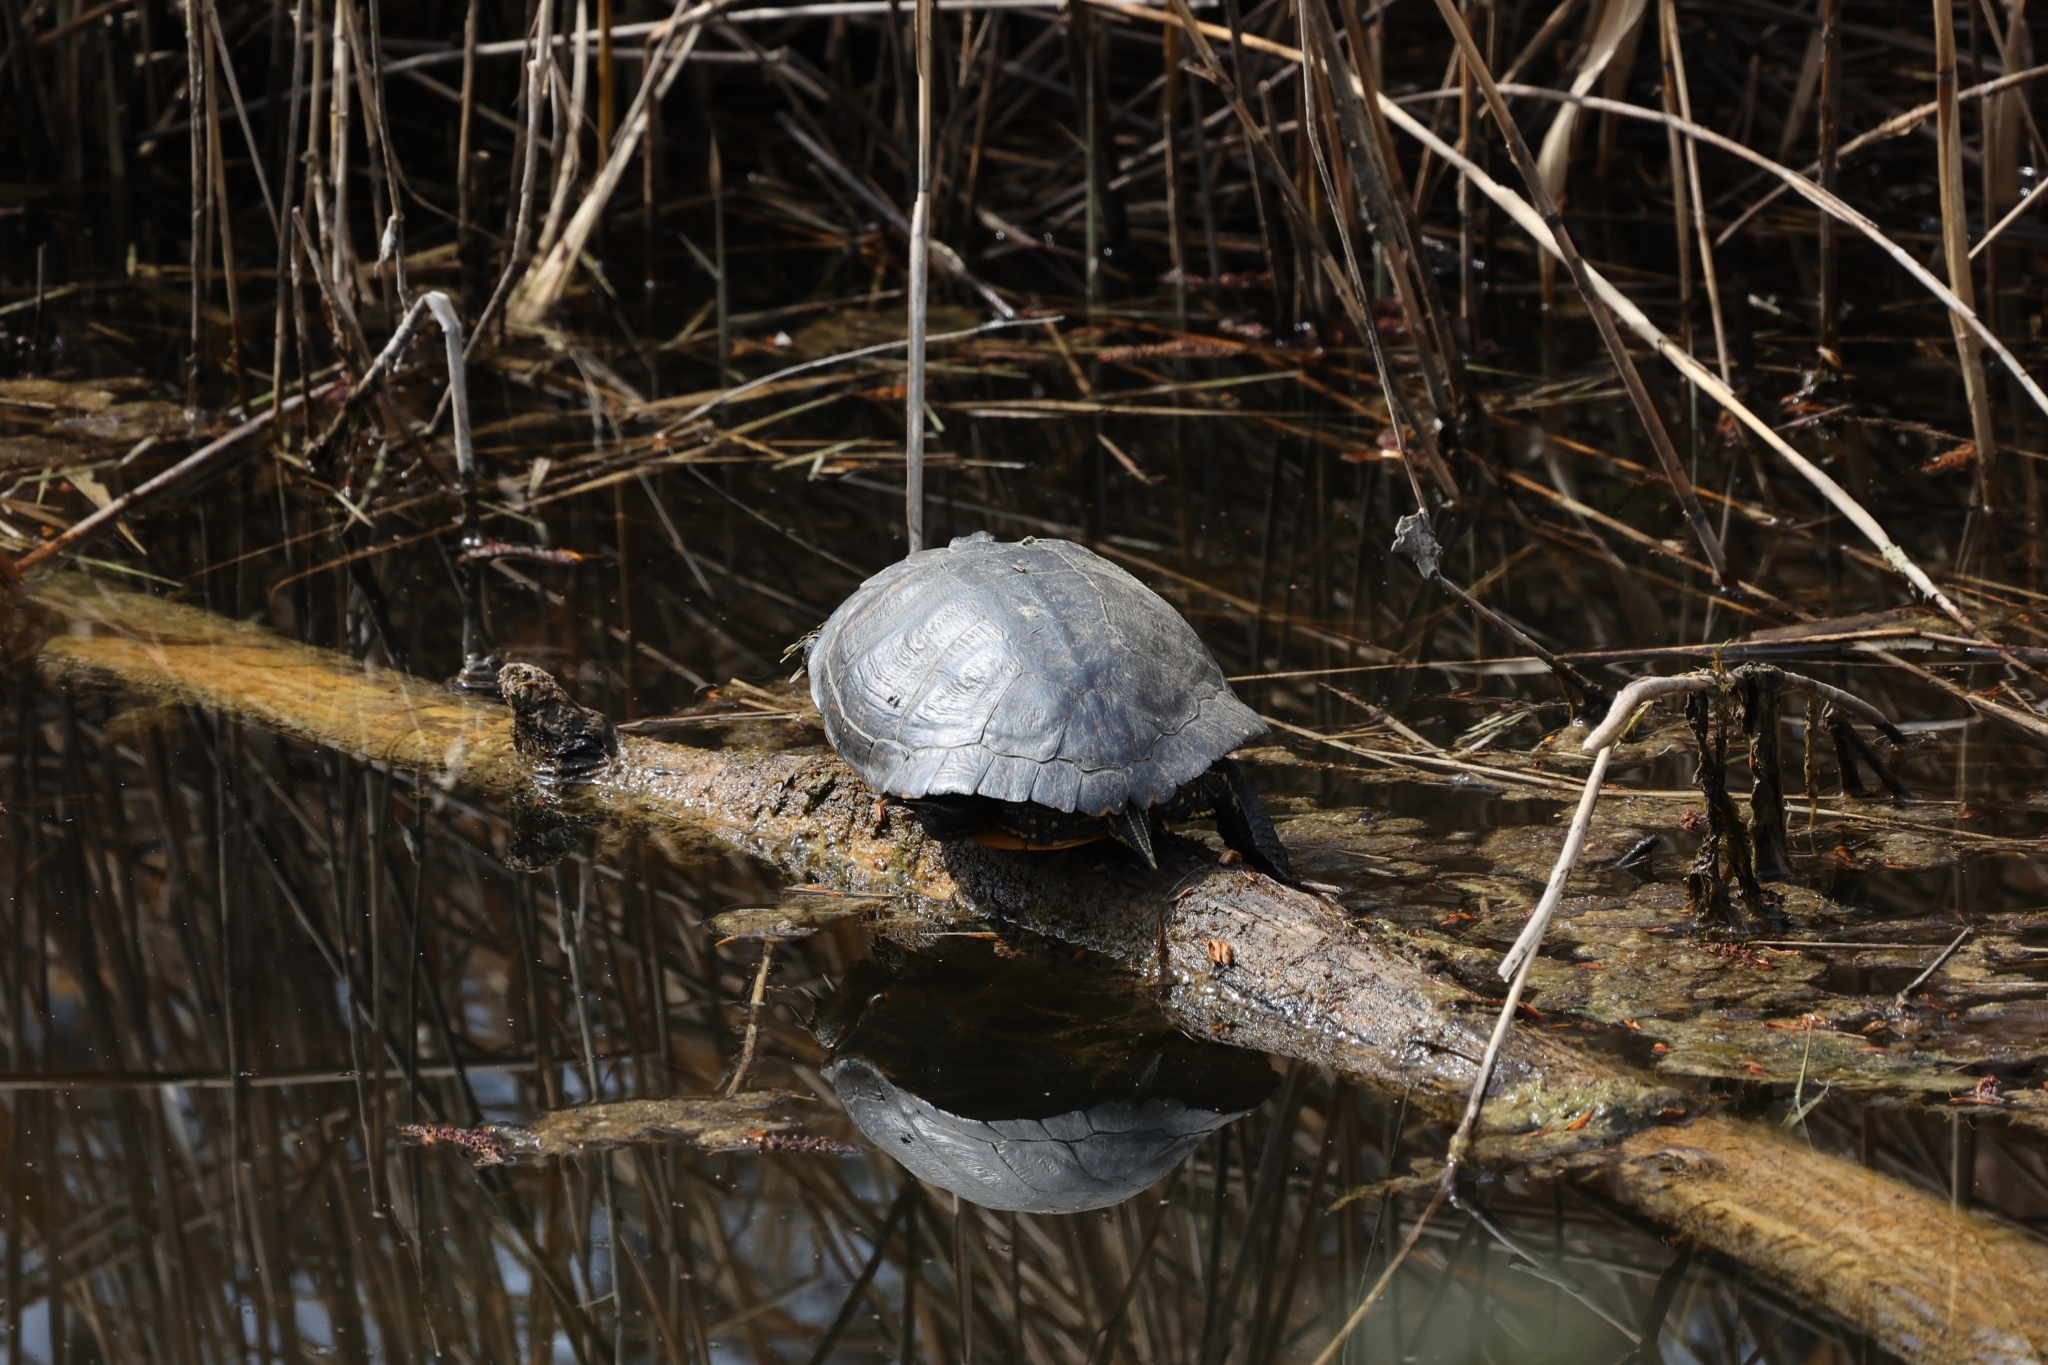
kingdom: Animalia
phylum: Chordata
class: Testudines
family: Emydidae
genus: Trachemys
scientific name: Trachemys scripta
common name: Slider
